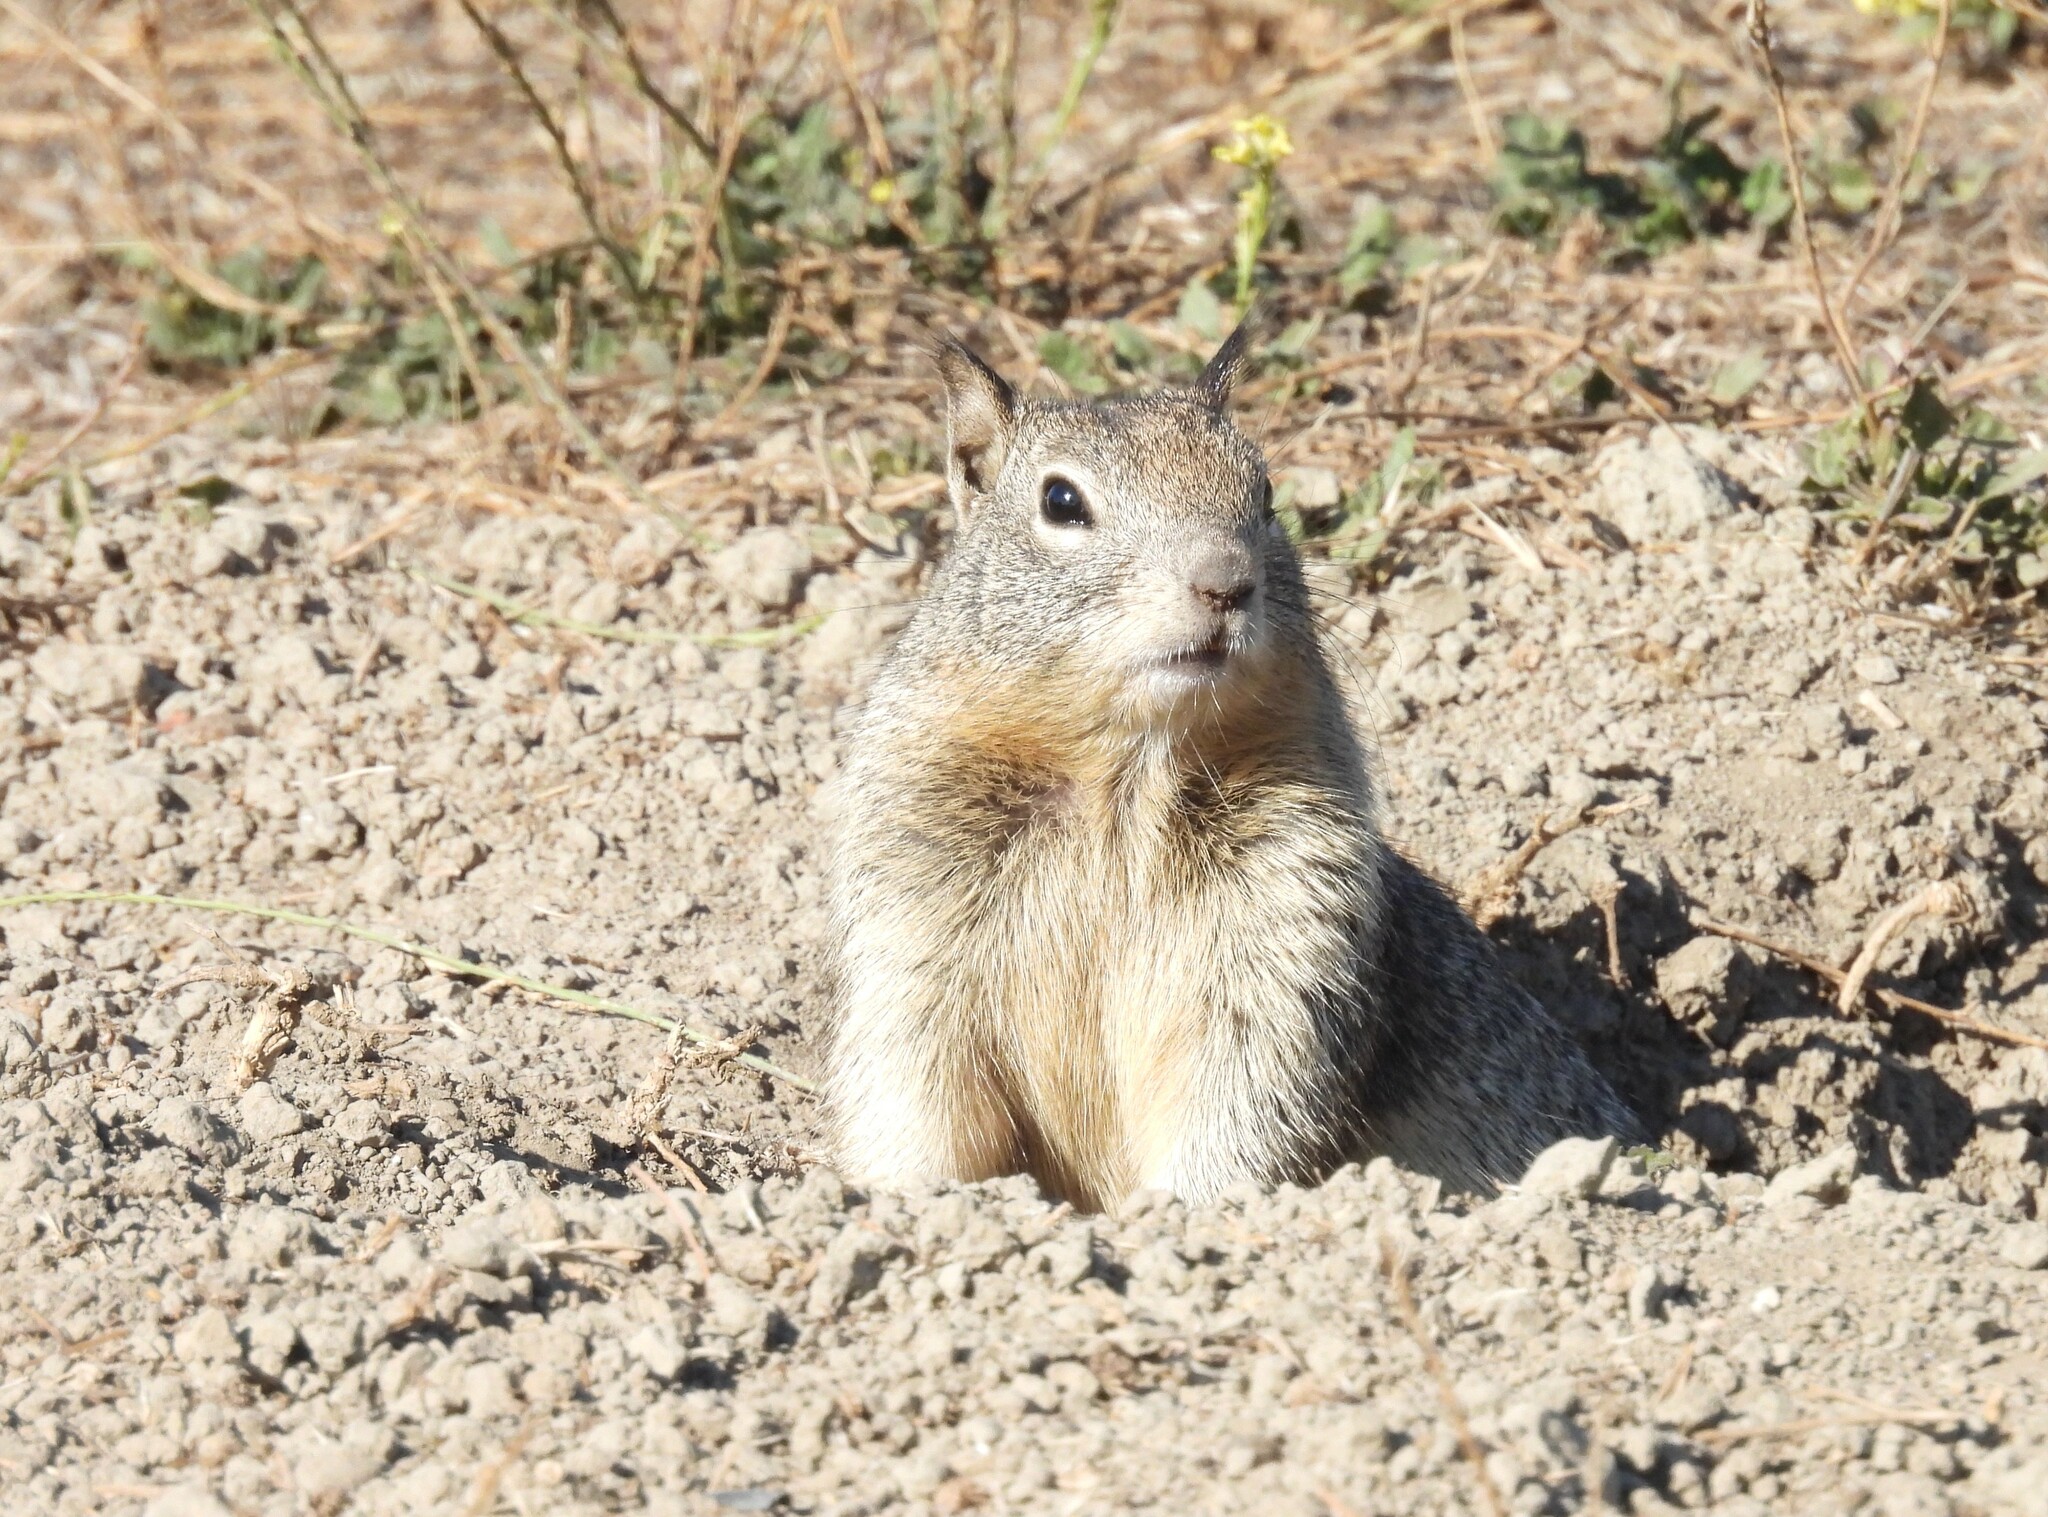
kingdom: Animalia
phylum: Chordata
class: Mammalia
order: Rodentia
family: Sciuridae
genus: Otospermophilus
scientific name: Otospermophilus beecheyi
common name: California ground squirrel
